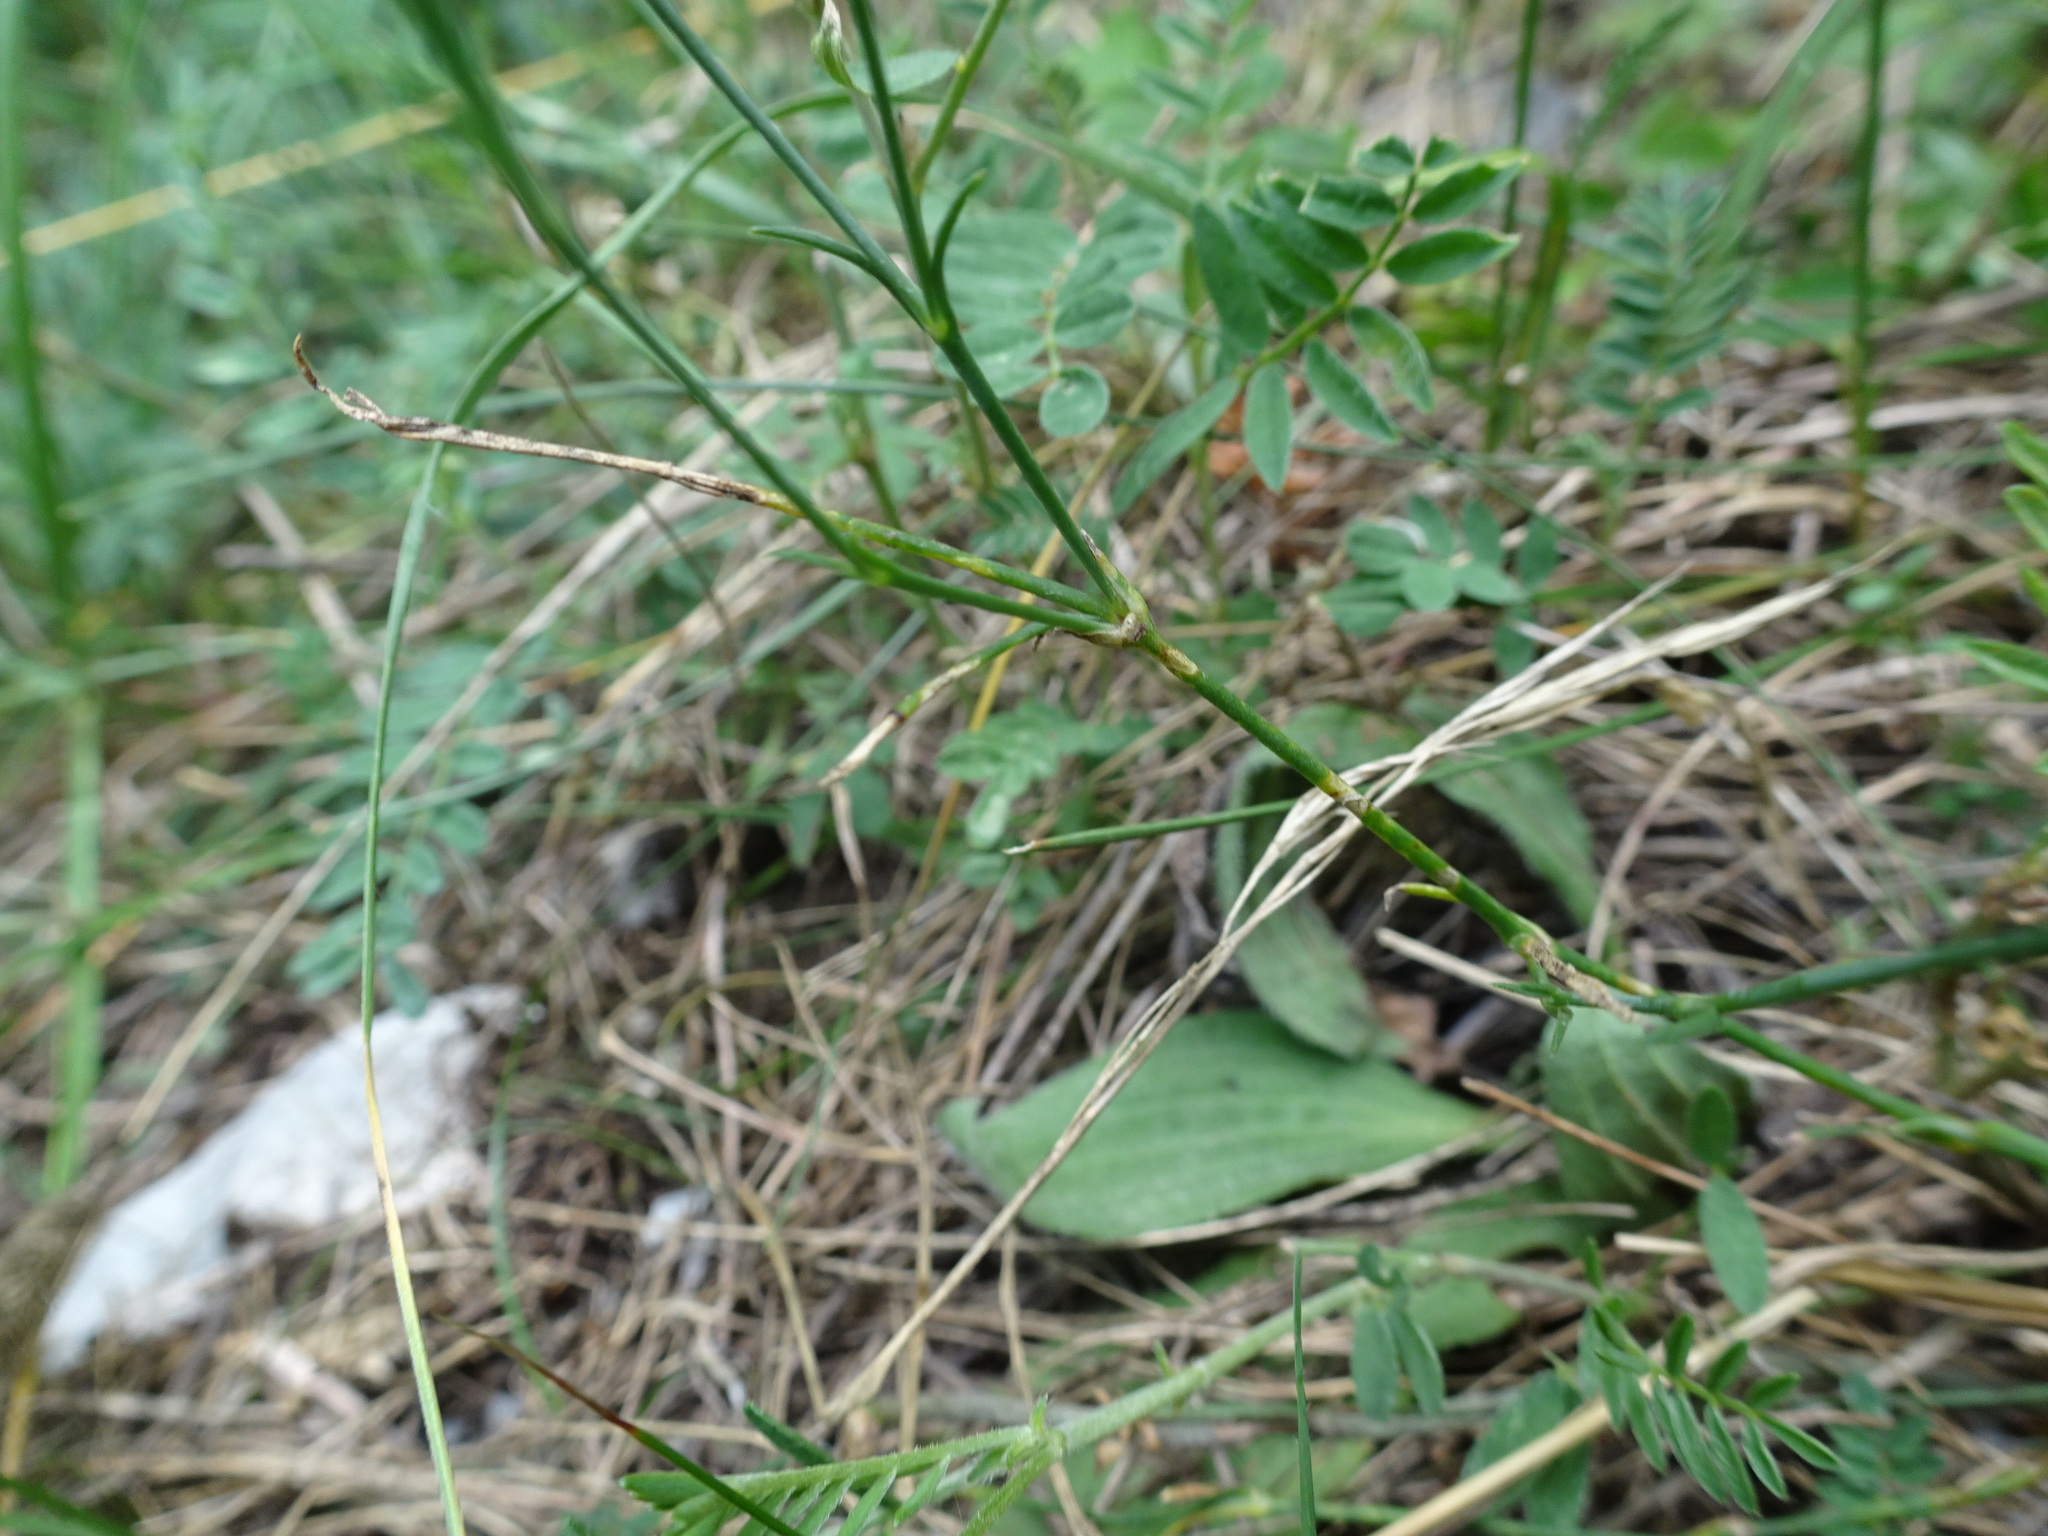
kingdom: Plantae
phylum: Tracheophyta
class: Magnoliopsida
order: Caryophyllales
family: Caryophyllaceae
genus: Petrorhagia
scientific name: Petrorhagia saxifraga
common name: Tunicflower
